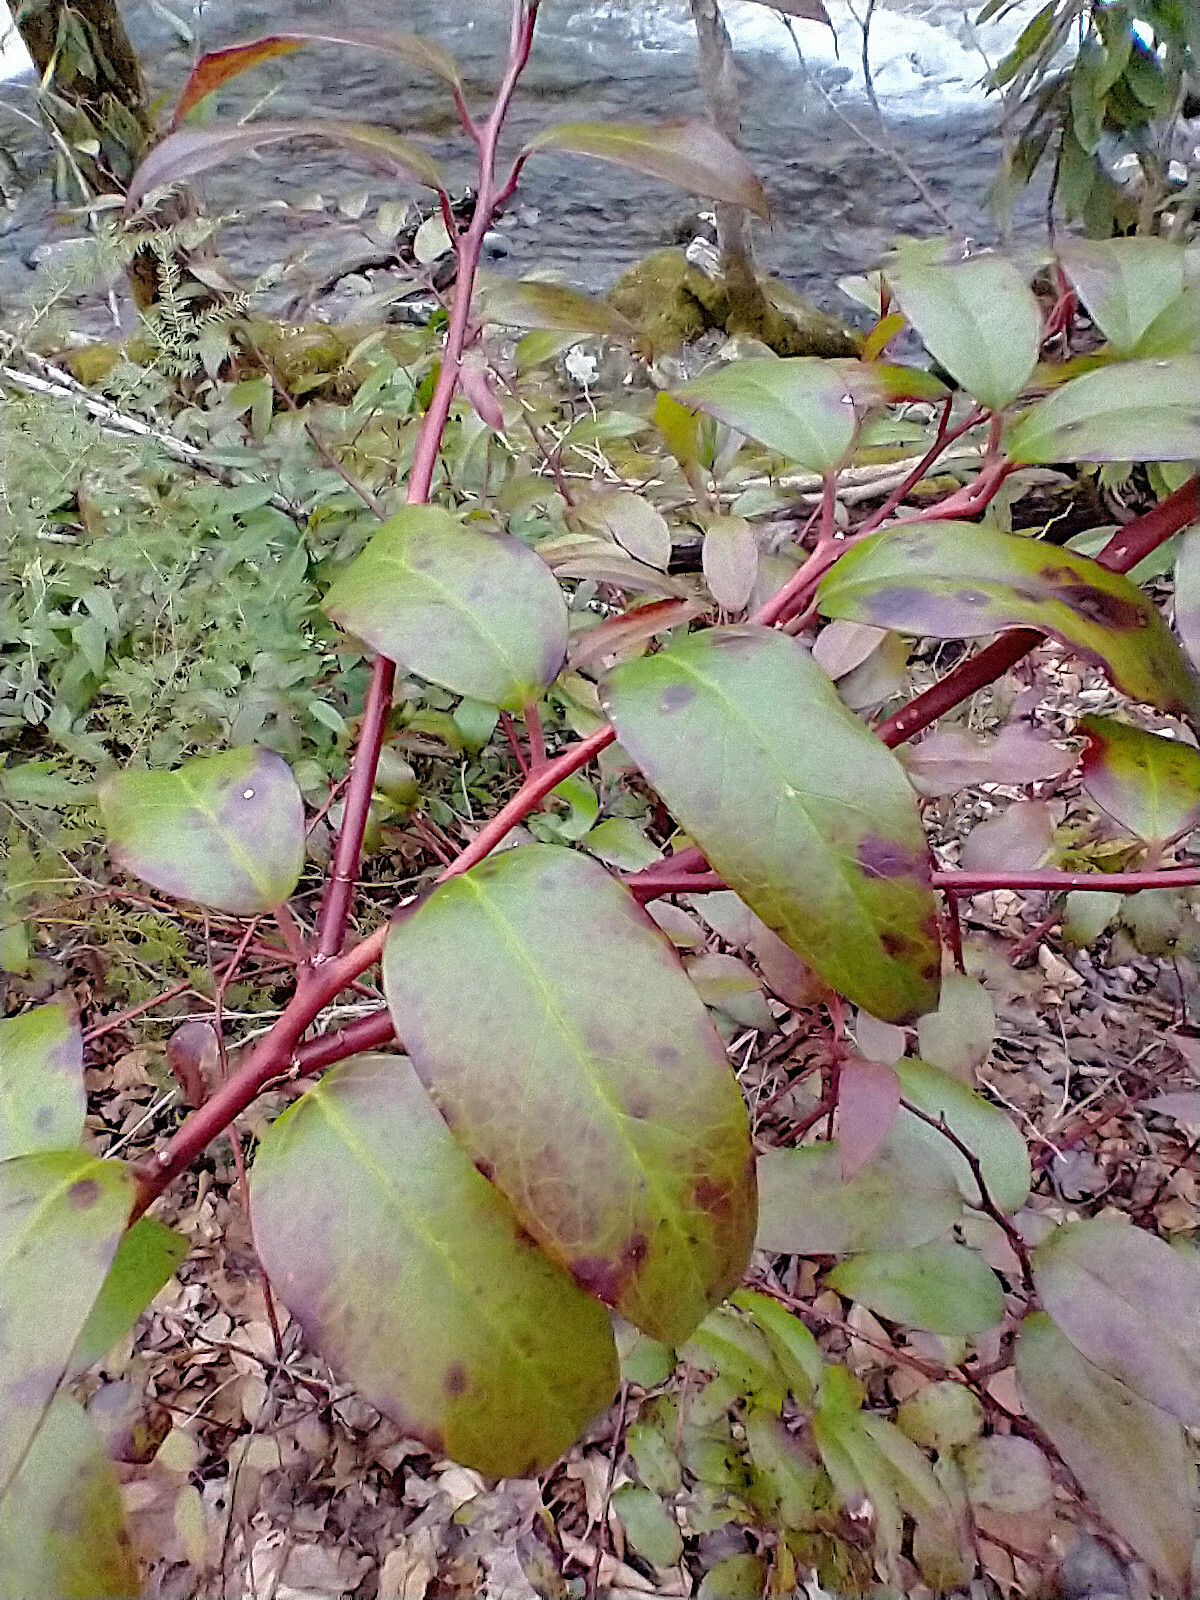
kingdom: Plantae
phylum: Tracheophyta
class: Magnoliopsida
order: Ericales
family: Ericaceae
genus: Leucothoe
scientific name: Leucothoe fontanesiana
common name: Fetterbush
